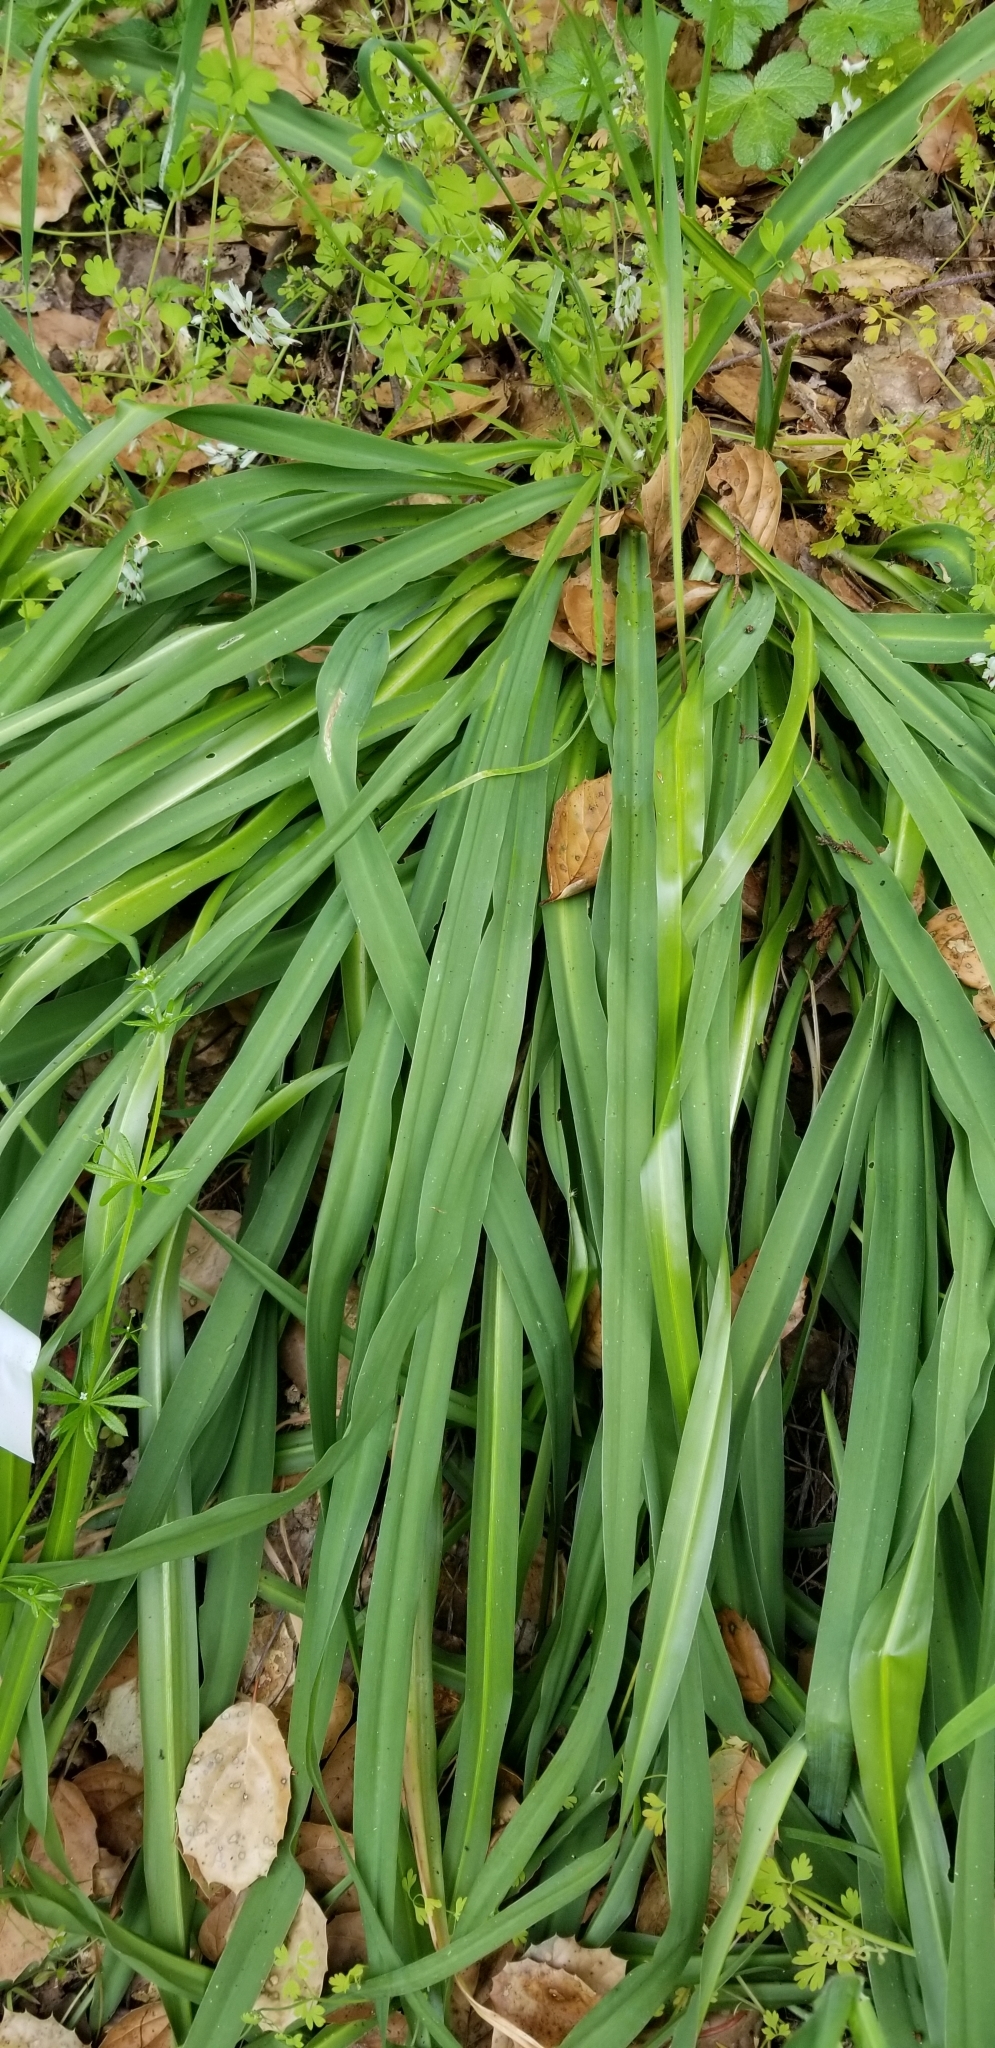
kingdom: Plantae
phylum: Tracheophyta
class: Liliopsida
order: Asparagales
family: Asparagaceae
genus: Chlorogalum
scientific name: Chlorogalum pomeridianum
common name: Amole
